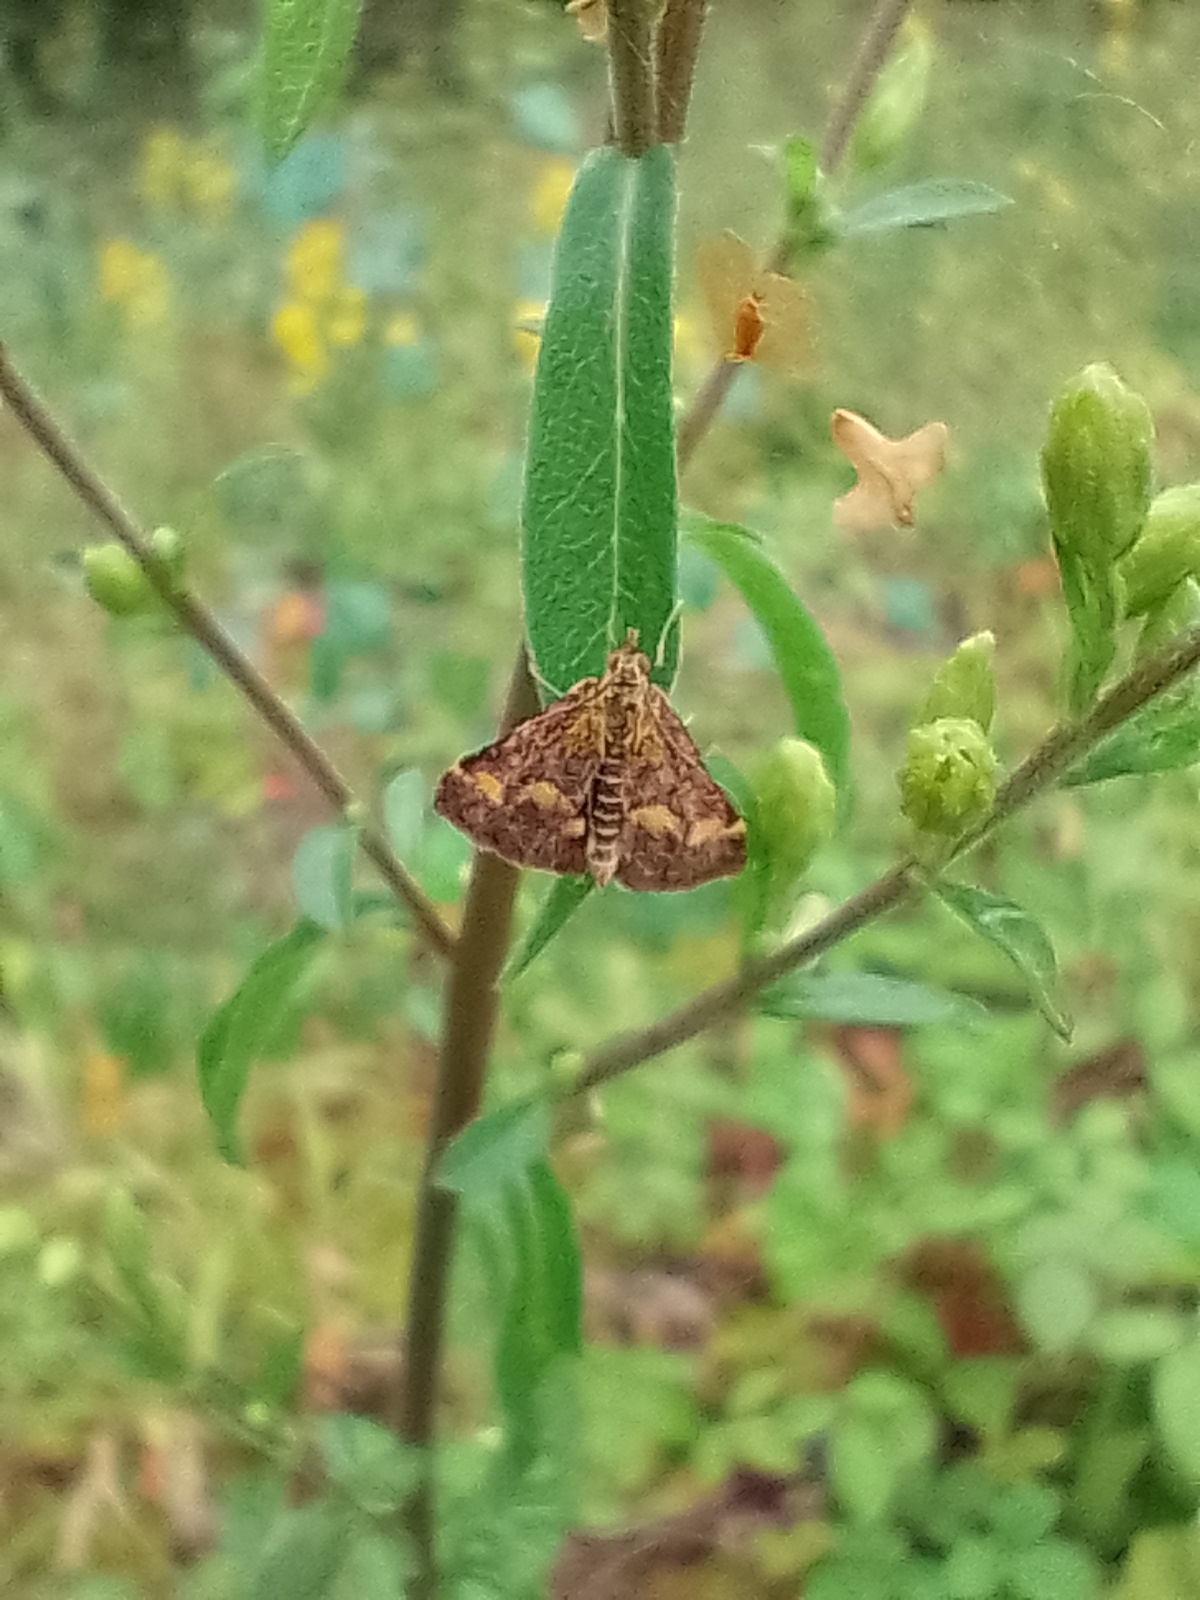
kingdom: Animalia
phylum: Arthropoda
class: Insecta
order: Lepidoptera
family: Crambidae
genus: Pyrausta
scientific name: Pyrausta aurata
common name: Small purple & gold
